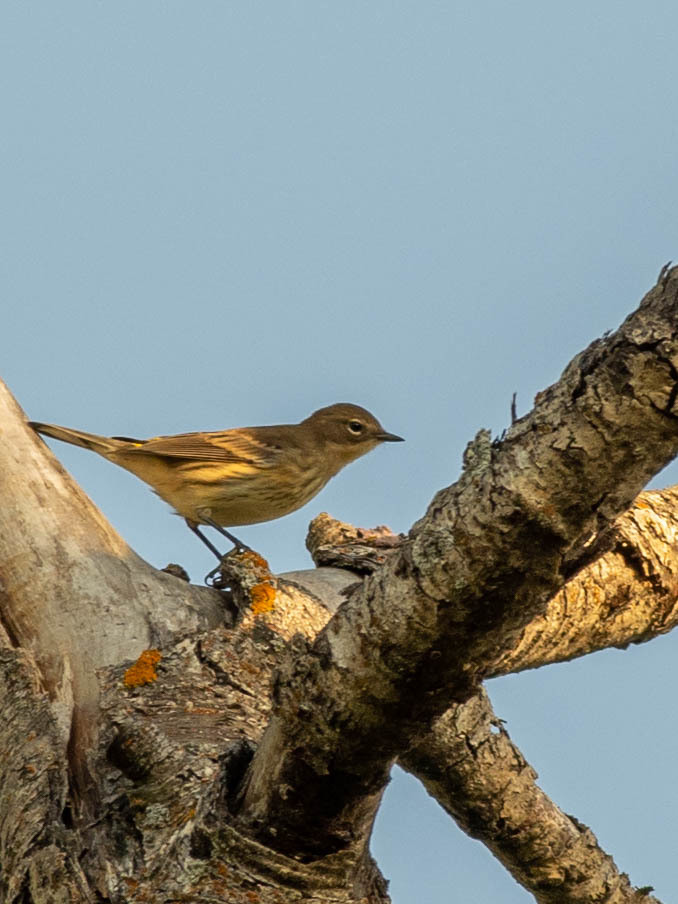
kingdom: Animalia
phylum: Chordata
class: Aves
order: Passeriformes
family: Parulidae
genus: Setophaga
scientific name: Setophaga coronata
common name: Myrtle warbler
